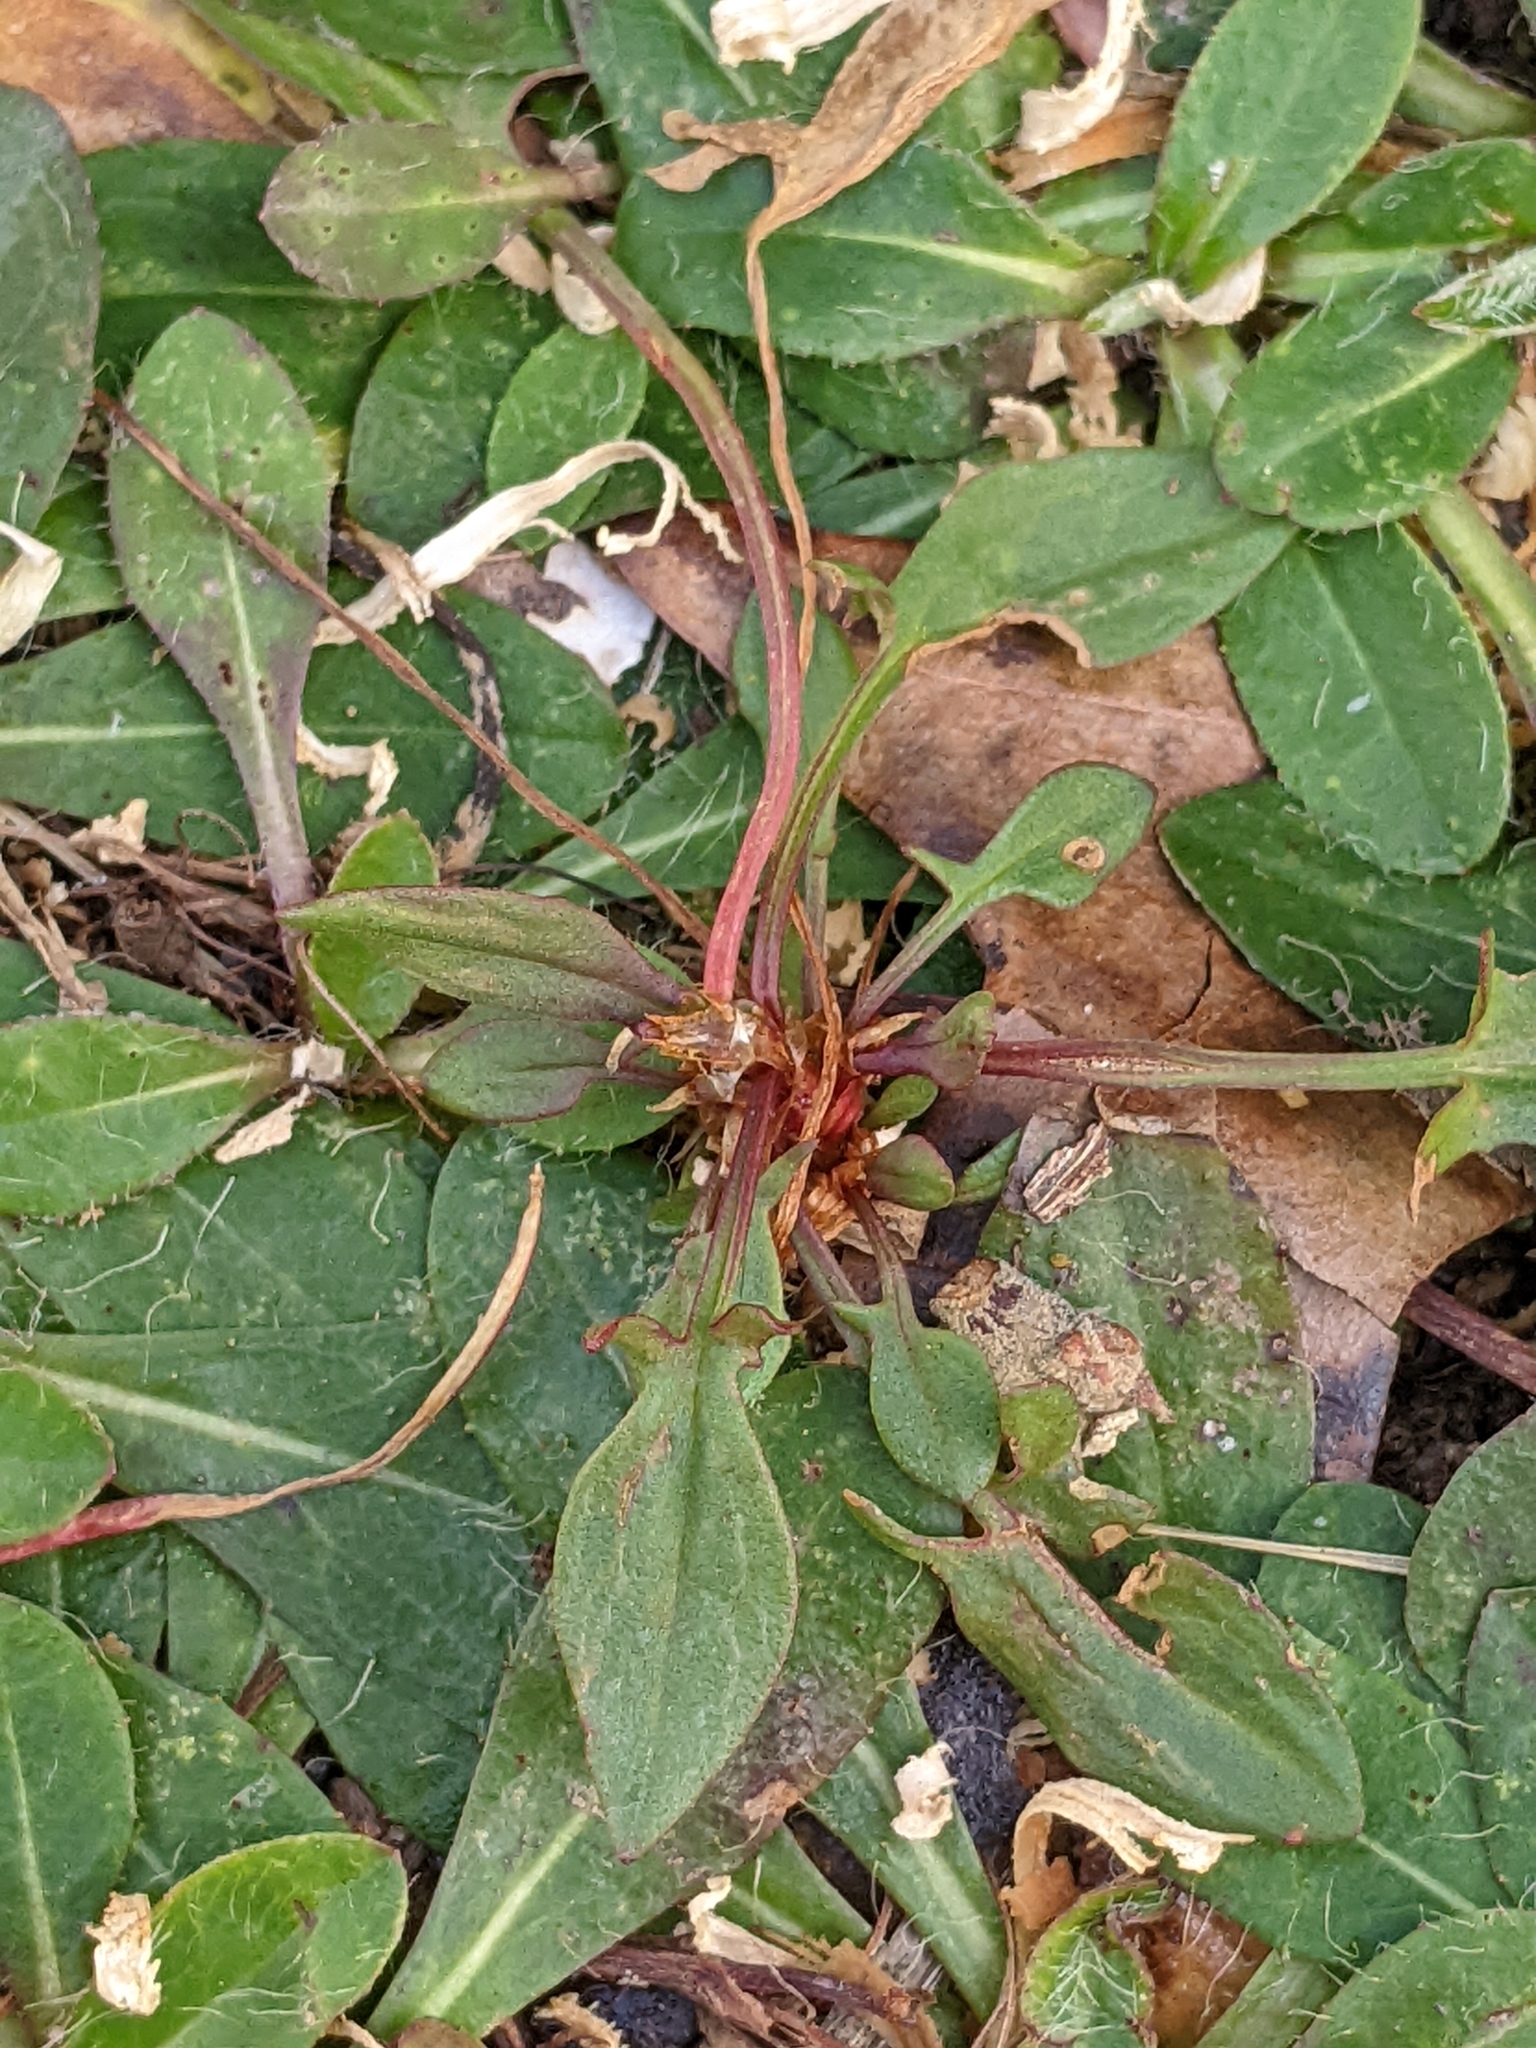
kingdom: Plantae
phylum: Tracheophyta
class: Magnoliopsida
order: Caryophyllales
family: Polygonaceae
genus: Rumex
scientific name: Rumex acetosella
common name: Common sheep sorrel
